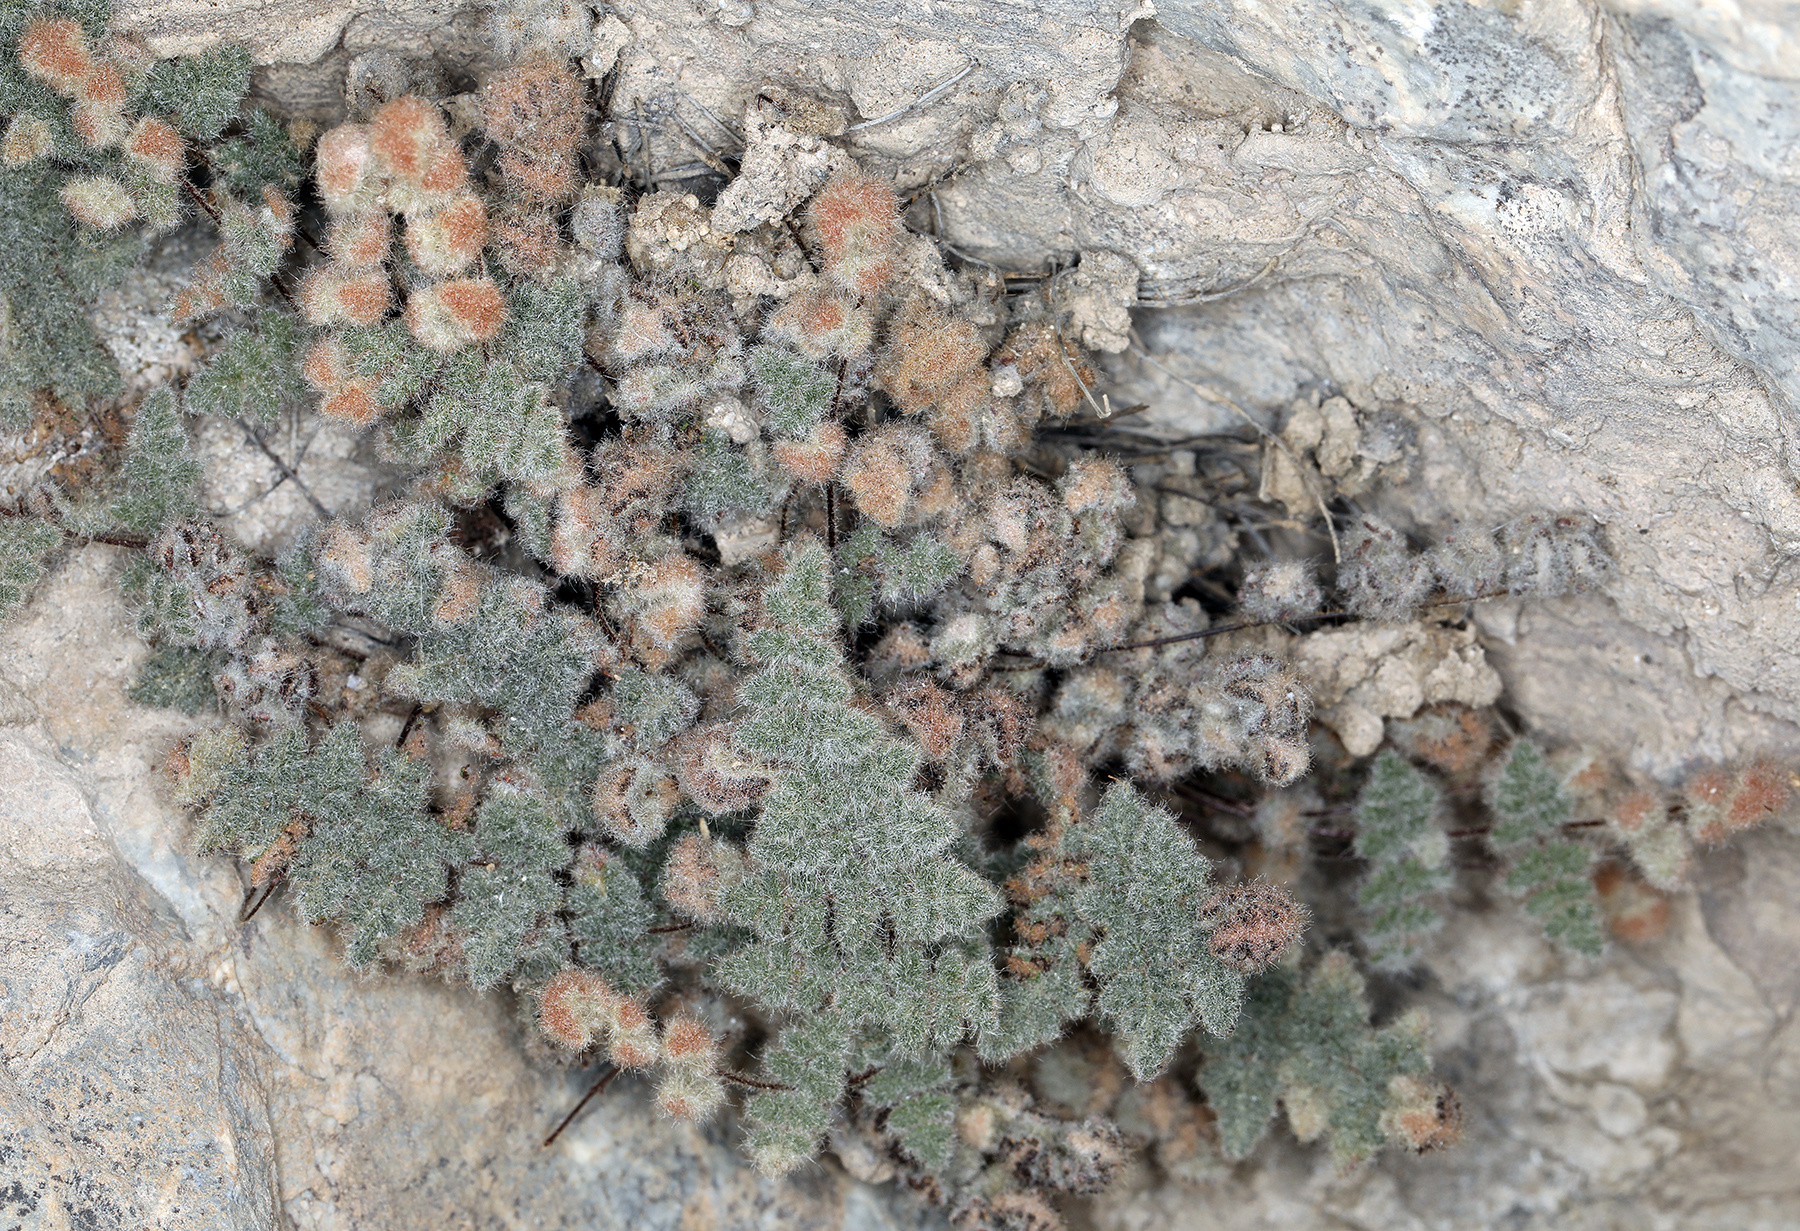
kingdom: Plantae
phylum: Tracheophyta
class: Polypodiopsida
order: Polypodiales
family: Pteridaceae
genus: Myriopteris
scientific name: Myriopteris parryi
